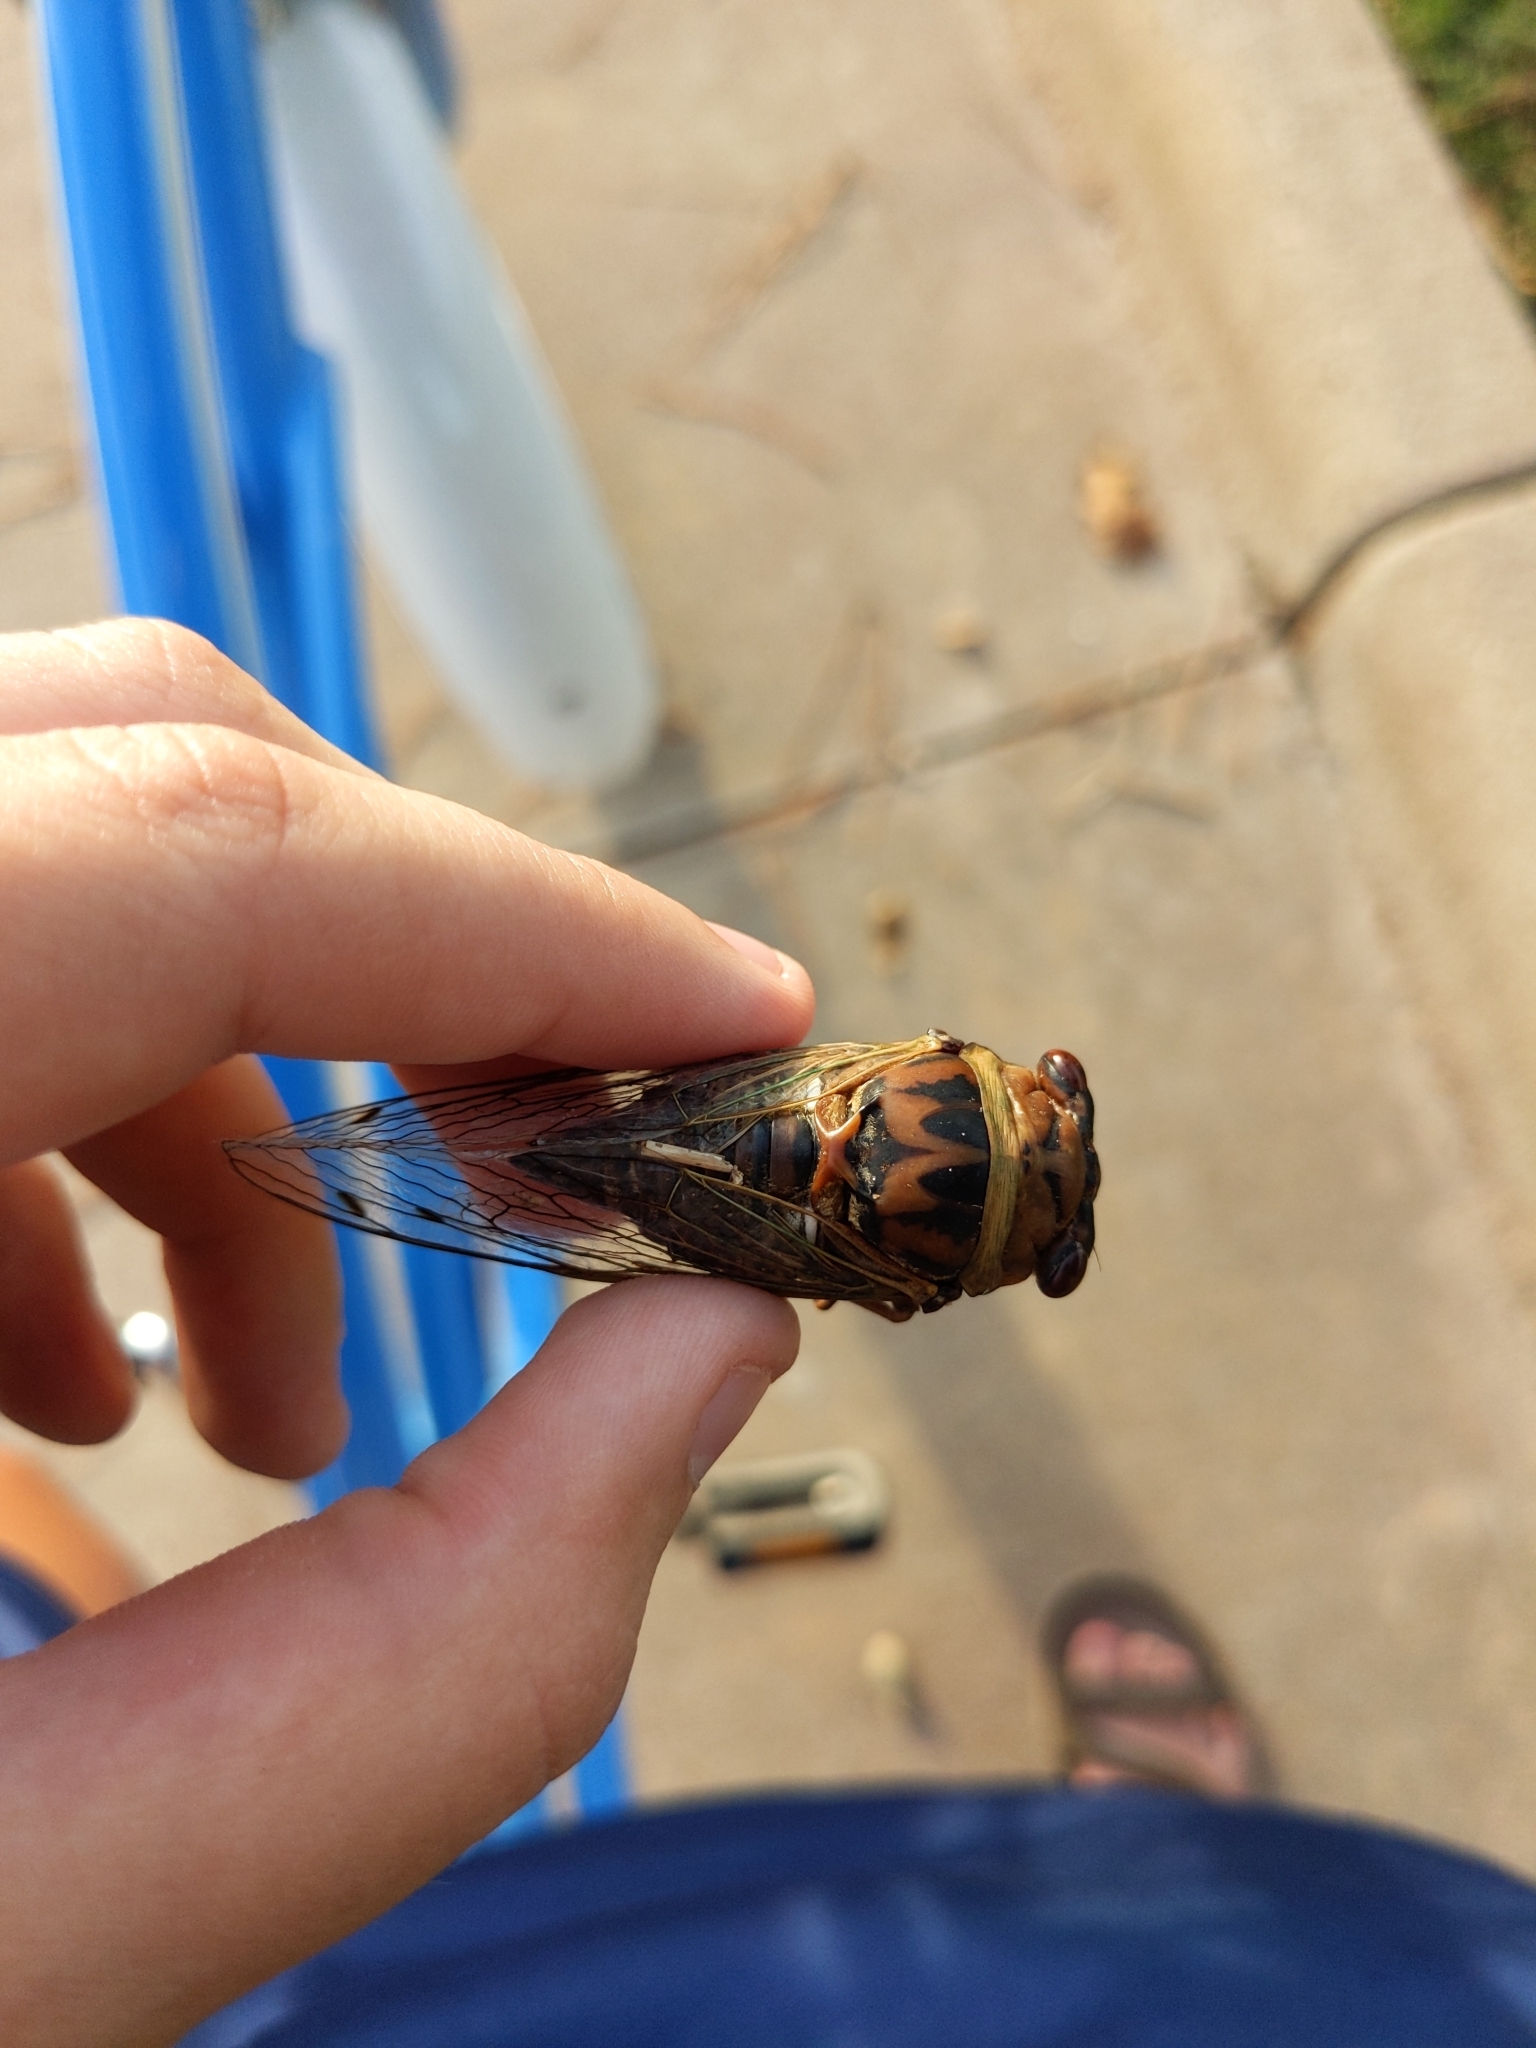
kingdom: Animalia
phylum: Arthropoda
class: Insecta
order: Hemiptera
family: Cicadidae
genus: Megatibicen
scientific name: Megatibicen resh
